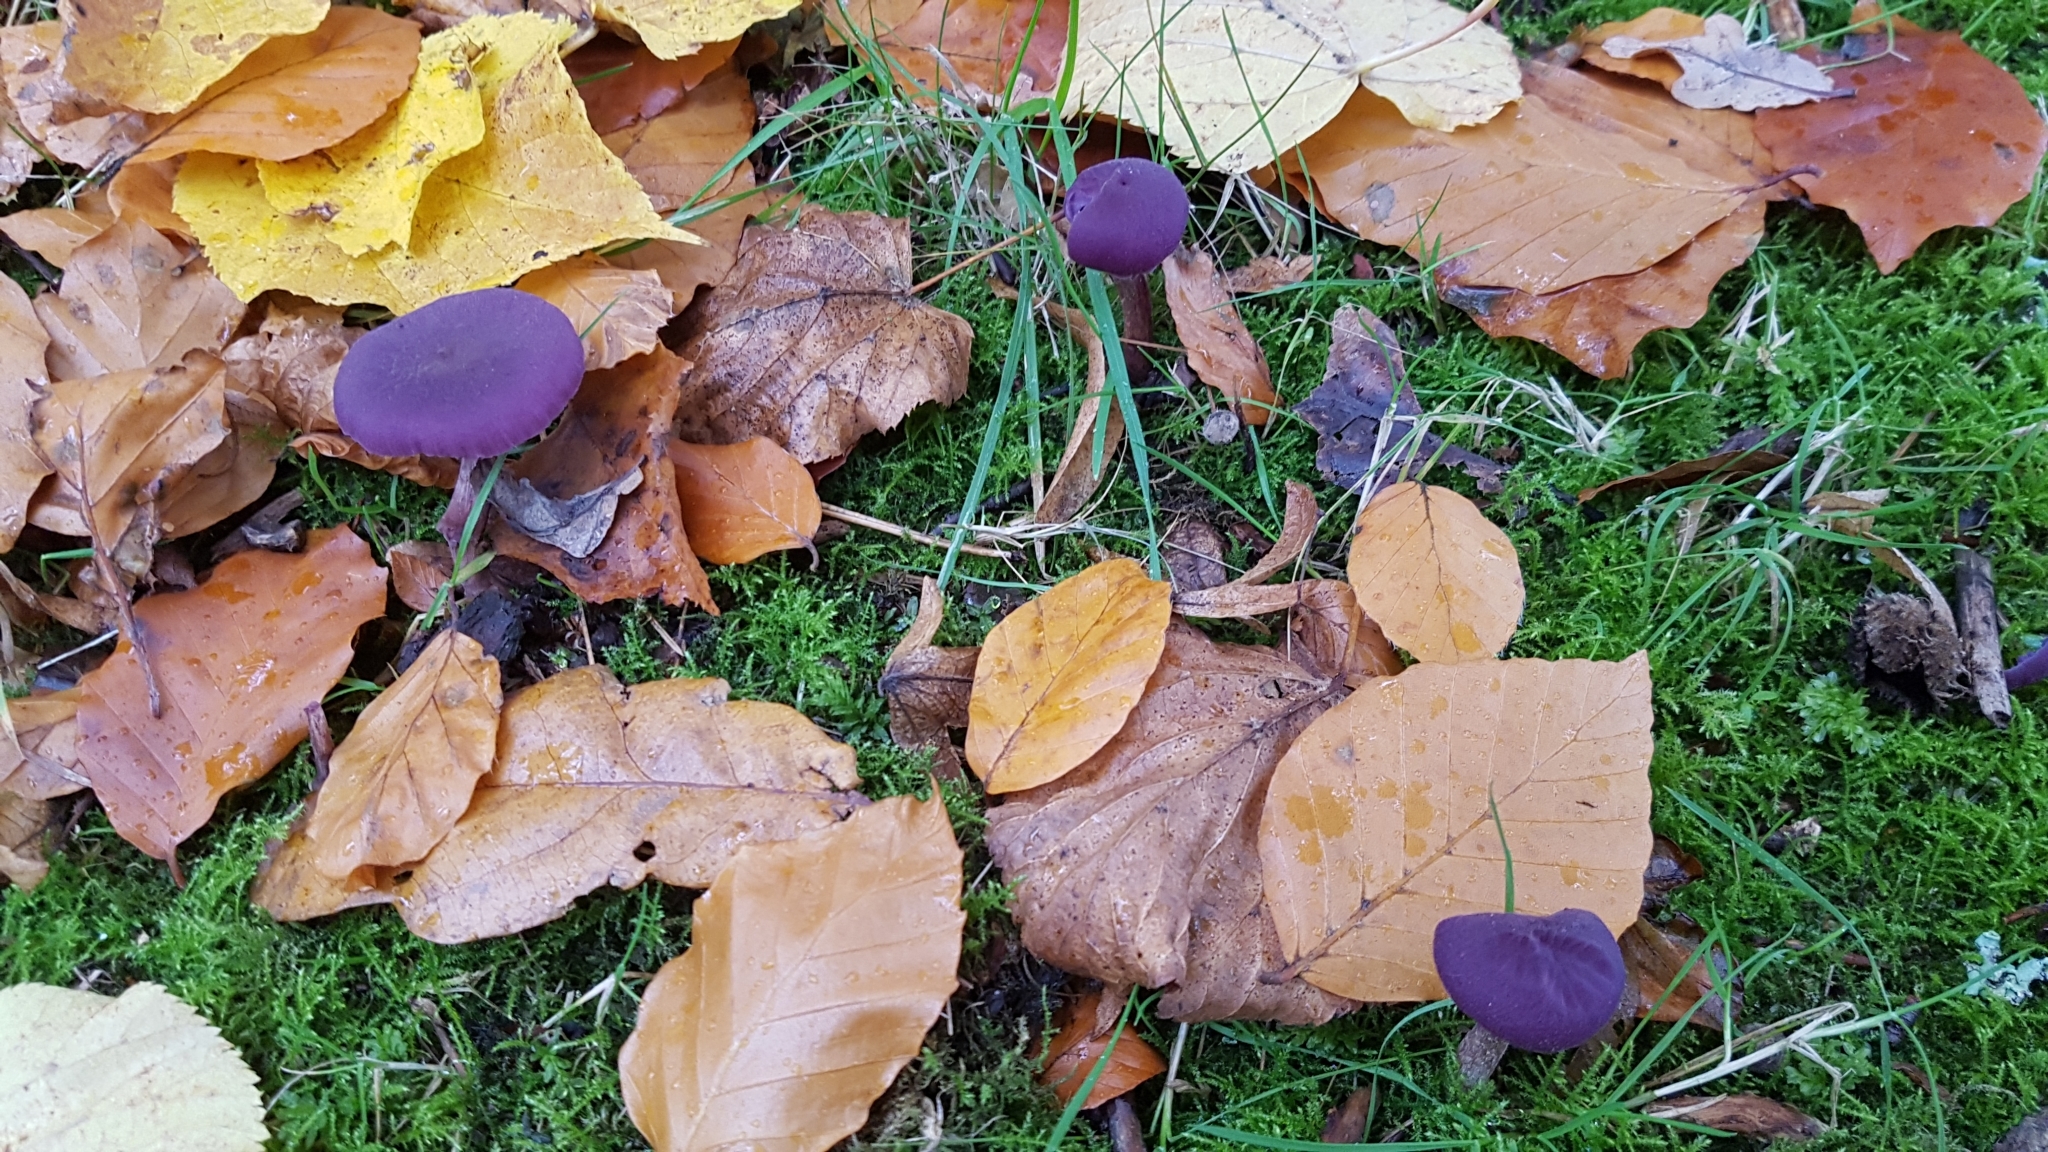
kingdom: Fungi
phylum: Basidiomycota
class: Agaricomycetes
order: Agaricales
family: Hydnangiaceae
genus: Laccaria
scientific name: Laccaria amethystina
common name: Amethyst deceiver
